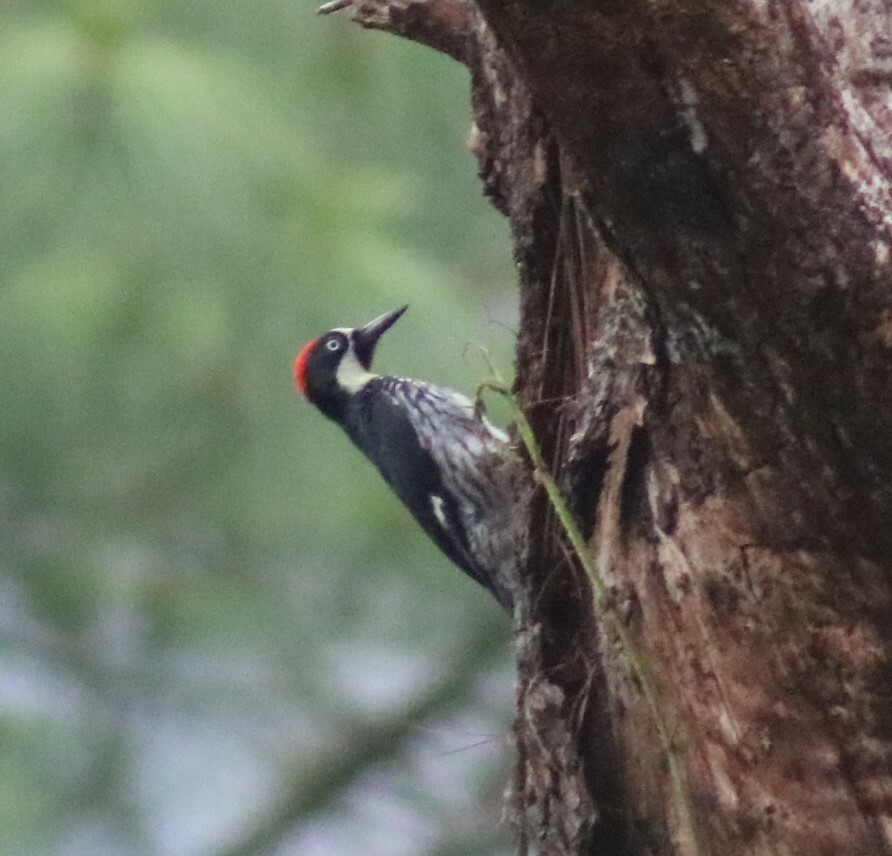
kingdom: Animalia
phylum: Chordata
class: Aves
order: Piciformes
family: Picidae
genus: Melanerpes
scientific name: Melanerpes formicivorus
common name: Acorn woodpecker
